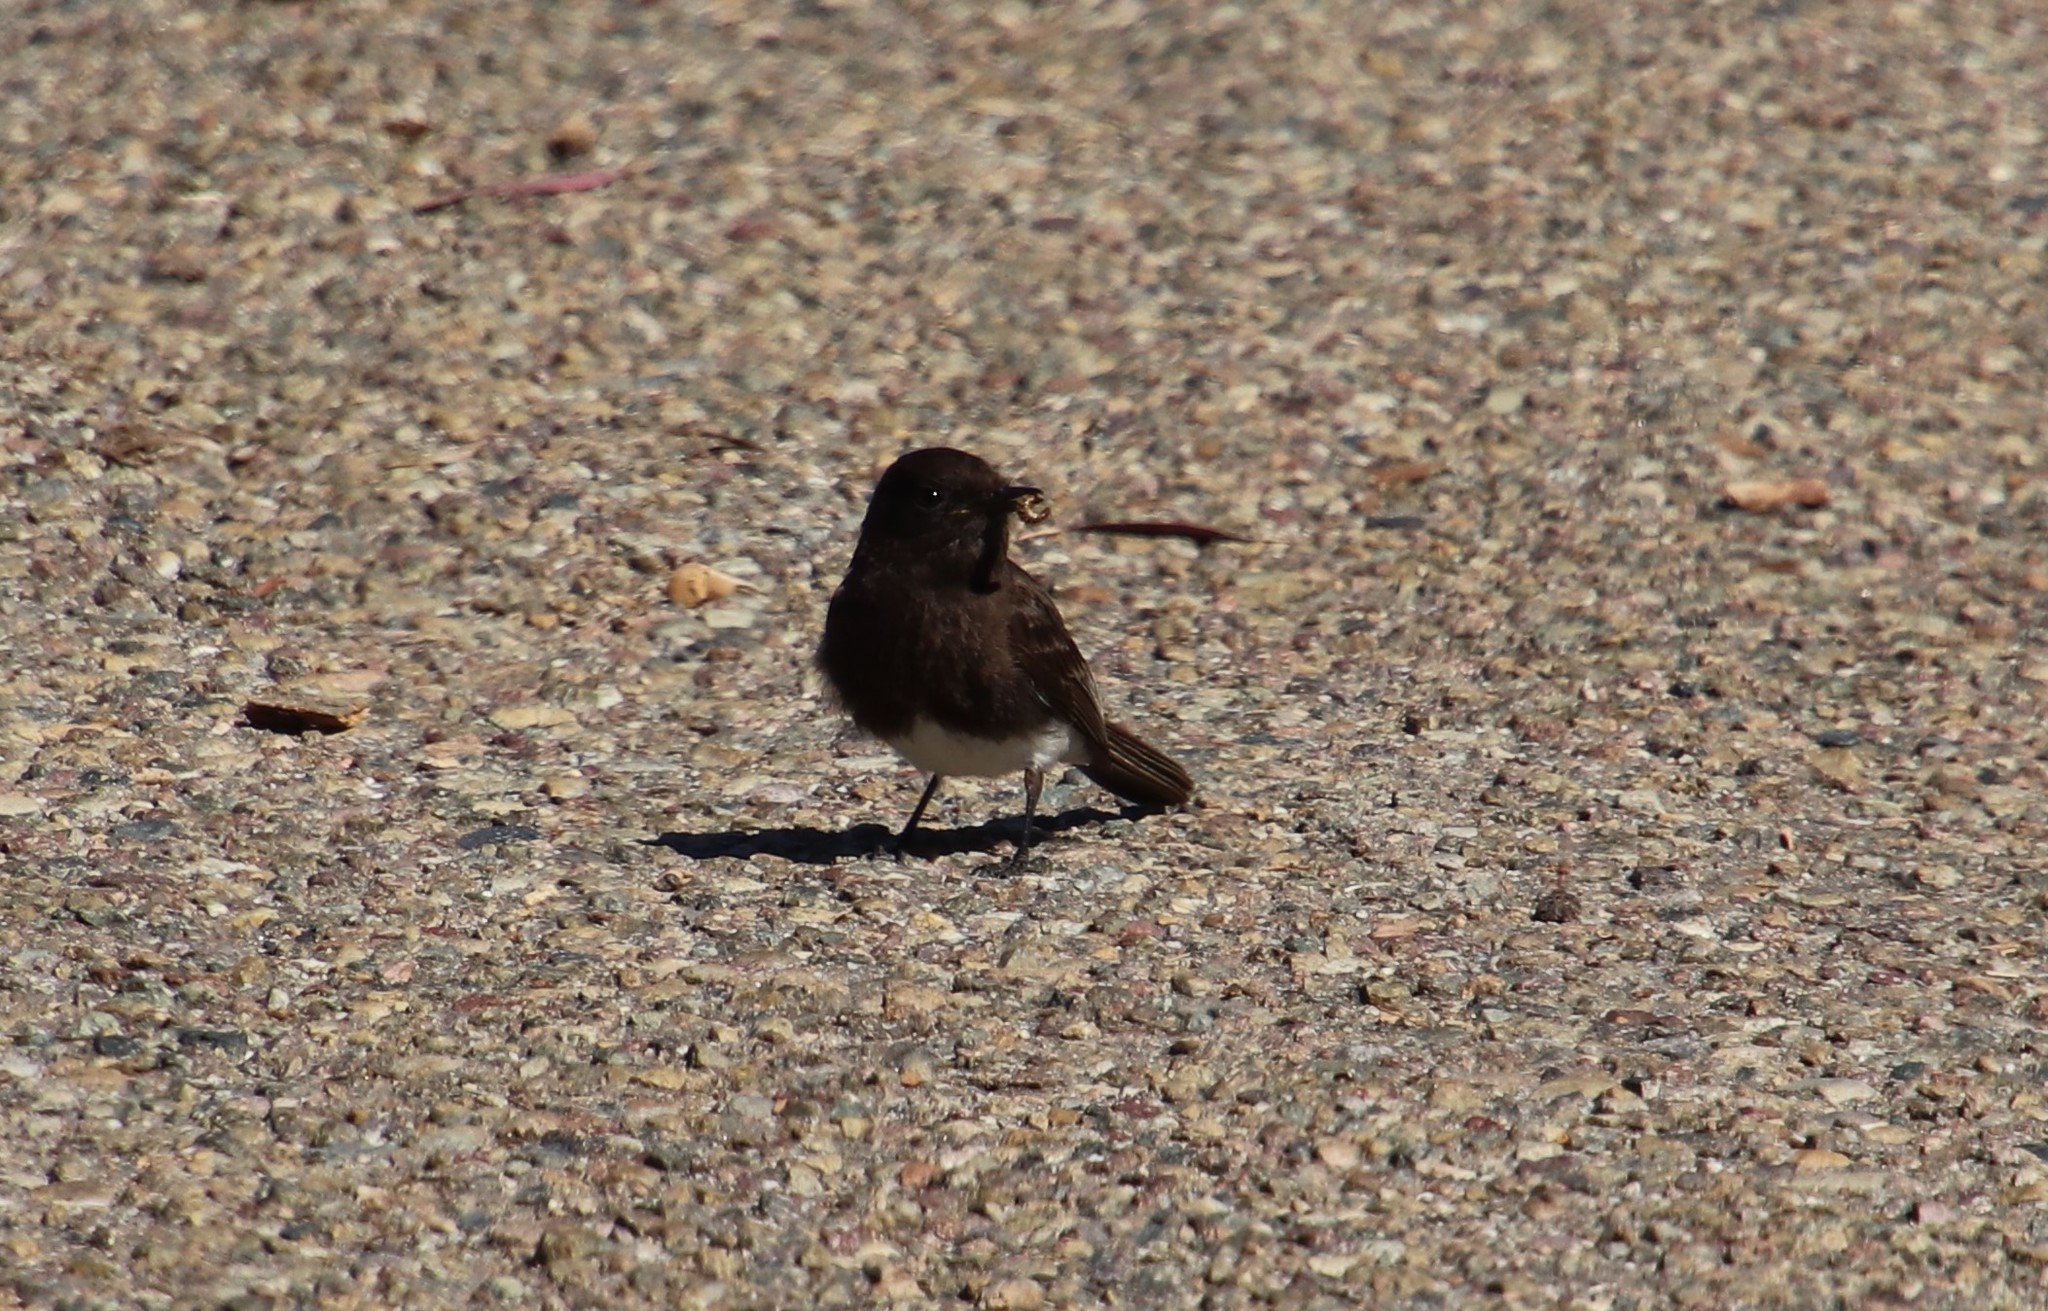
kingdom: Animalia
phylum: Chordata
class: Aves
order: Passeriformes
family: Tyrannidae
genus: Sayornis
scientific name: Sayornis nigricans
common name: Black phoebe
